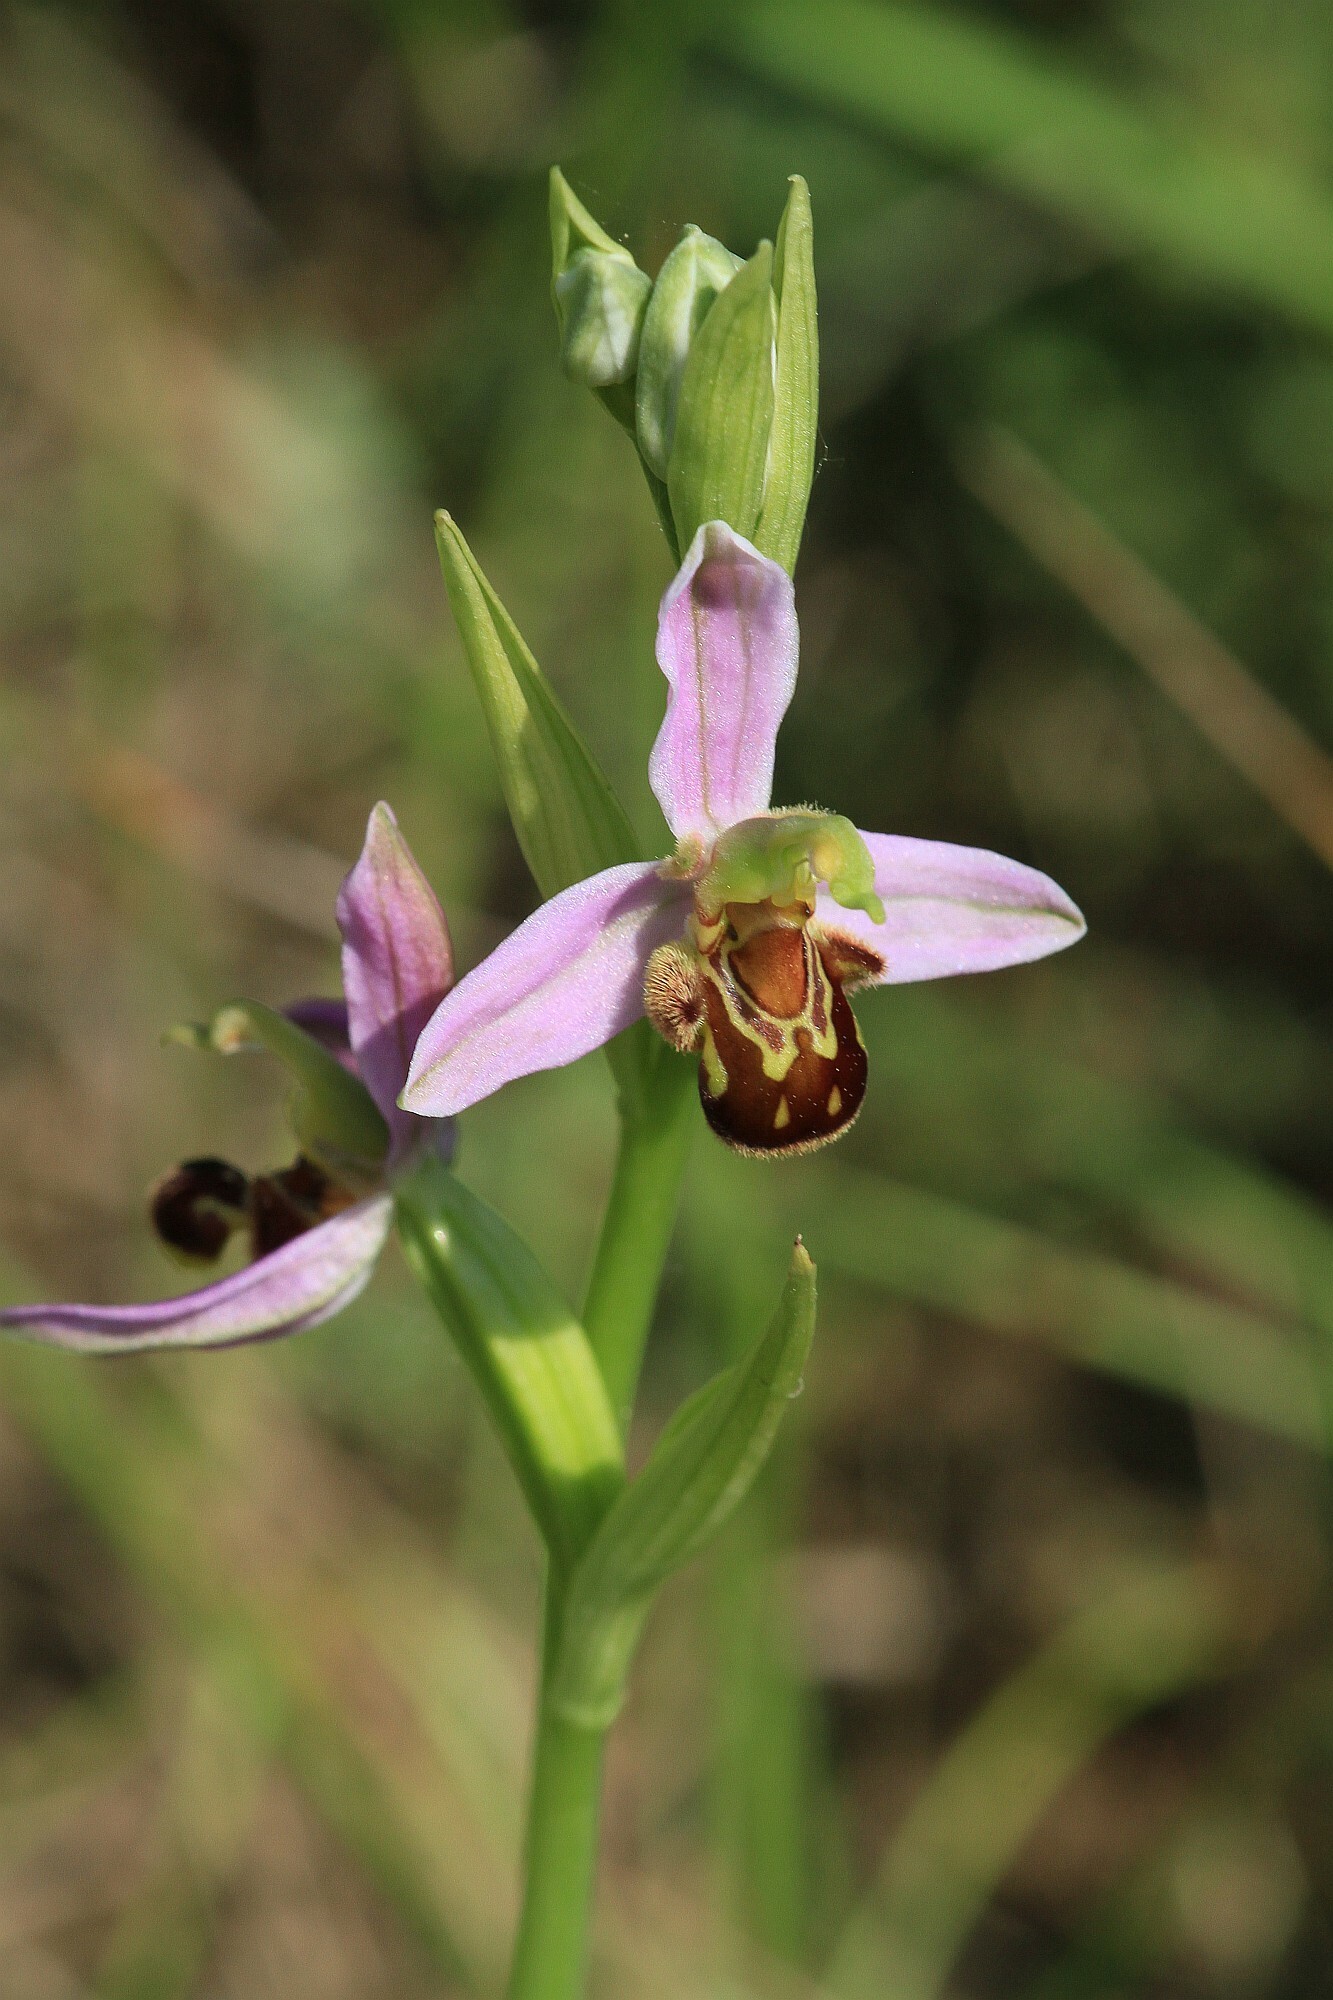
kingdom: Plantae
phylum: Tracheophyta
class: Liliopsida
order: Asparagales
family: Orchidaceae
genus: Ophrys
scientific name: Ophrys apifera
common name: Bee orchid
